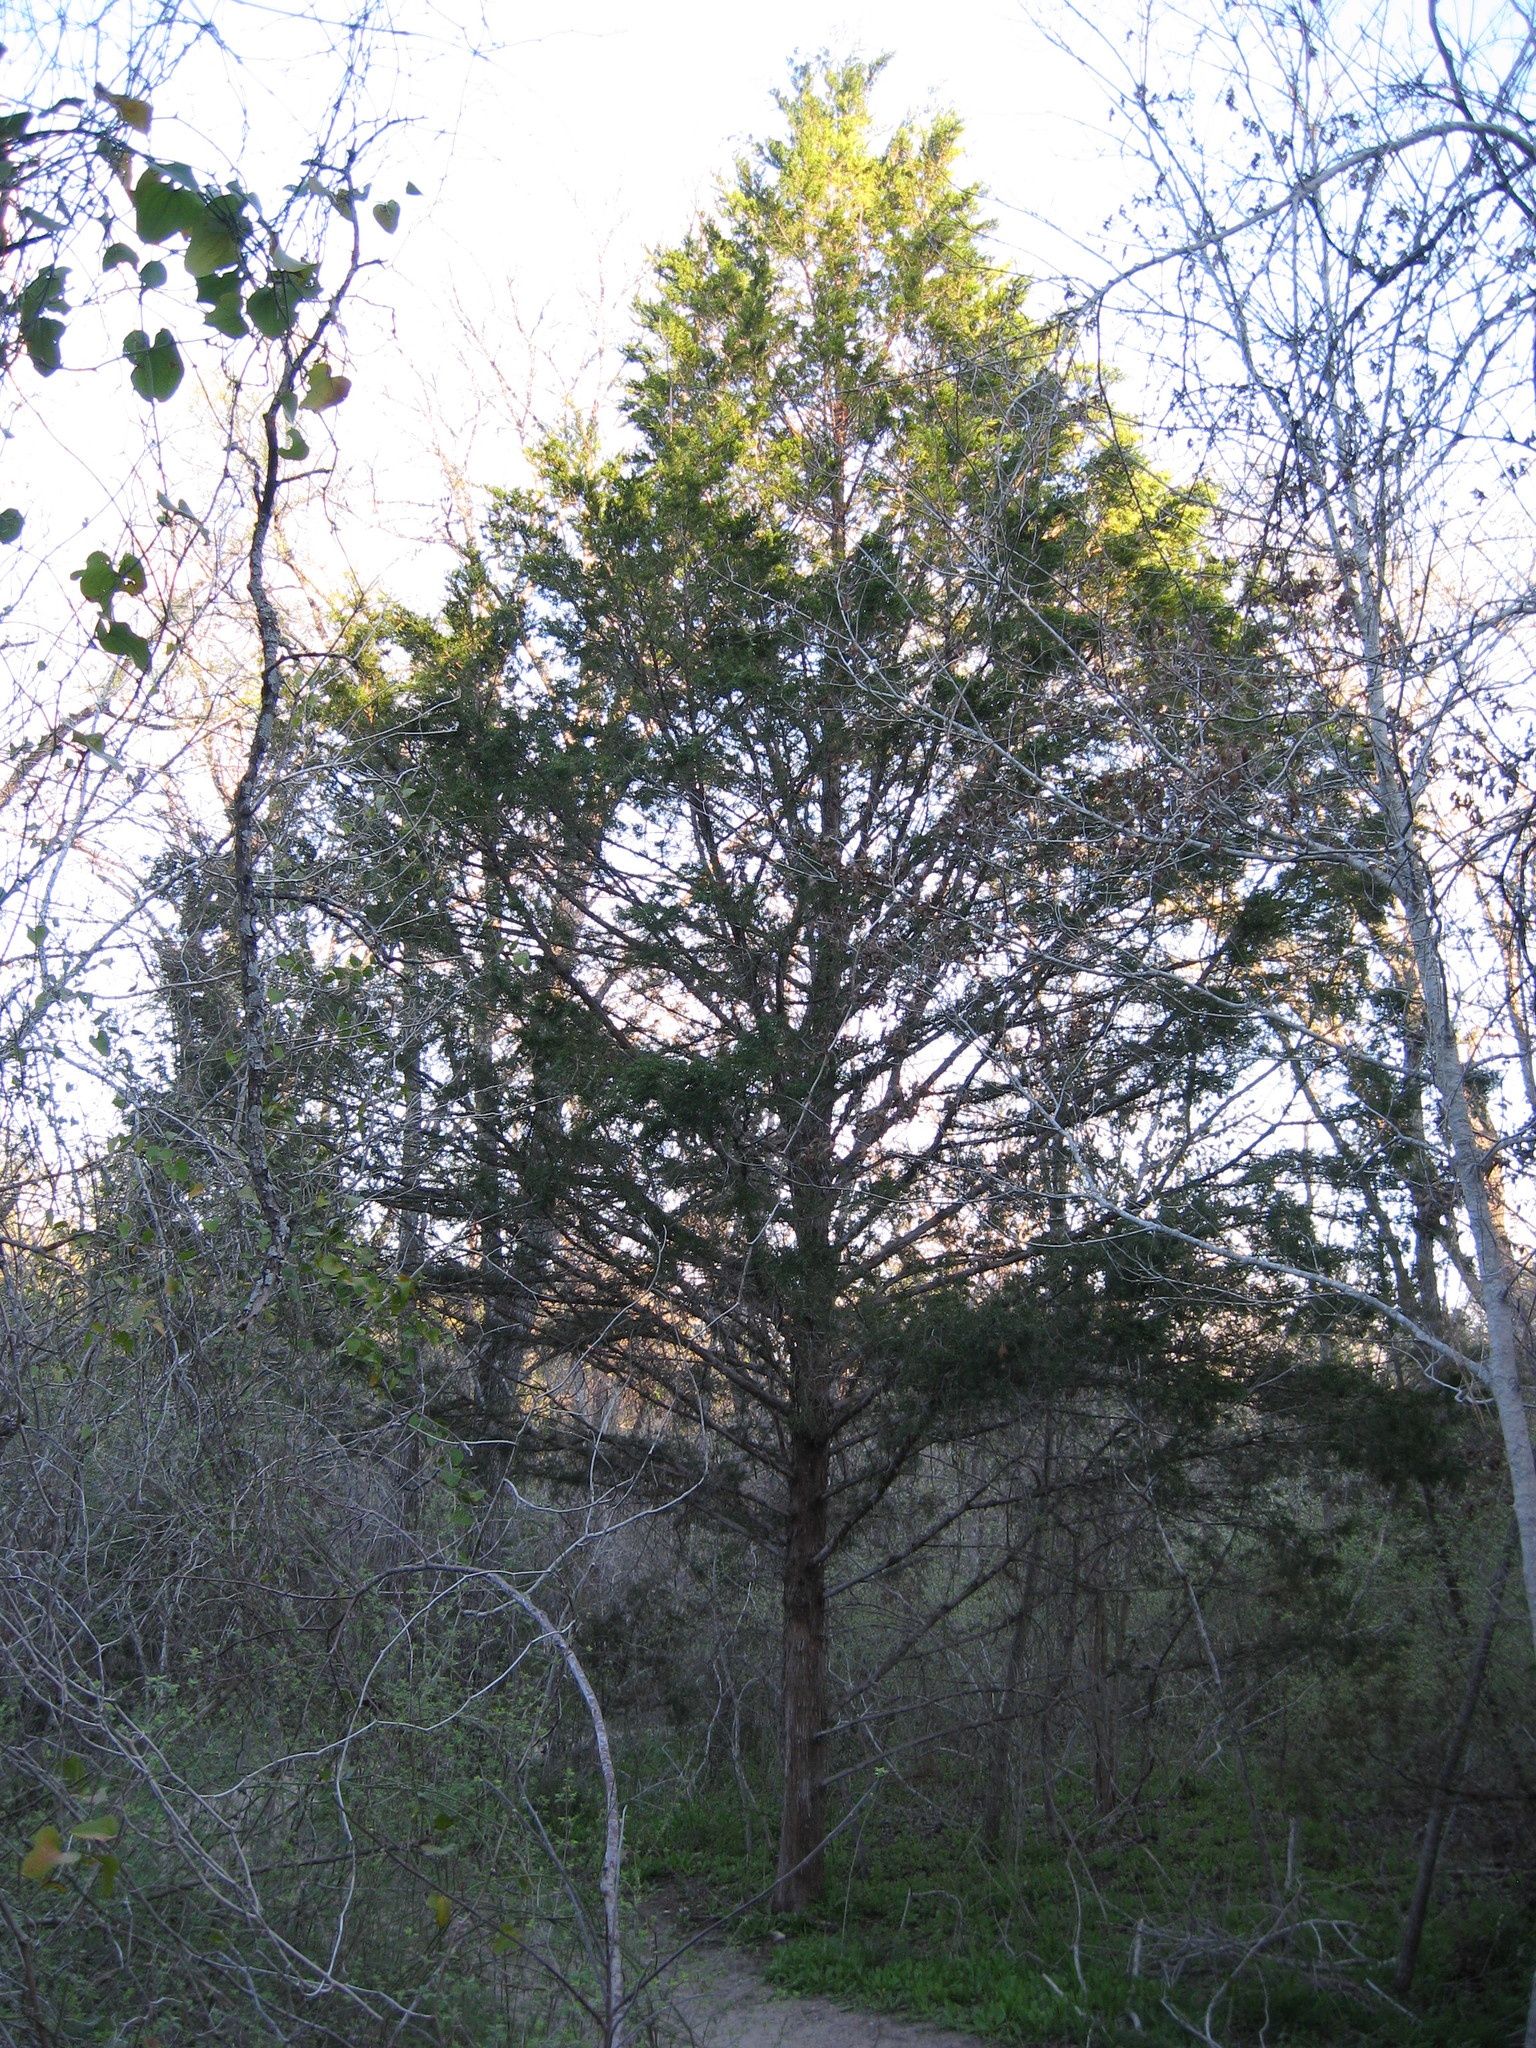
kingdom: Plantae
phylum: Tracheophyta
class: Pinopsida
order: Pinales
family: Cupressaceae
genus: Juniperus
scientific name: Juniperus virginiana
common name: Red juniper
